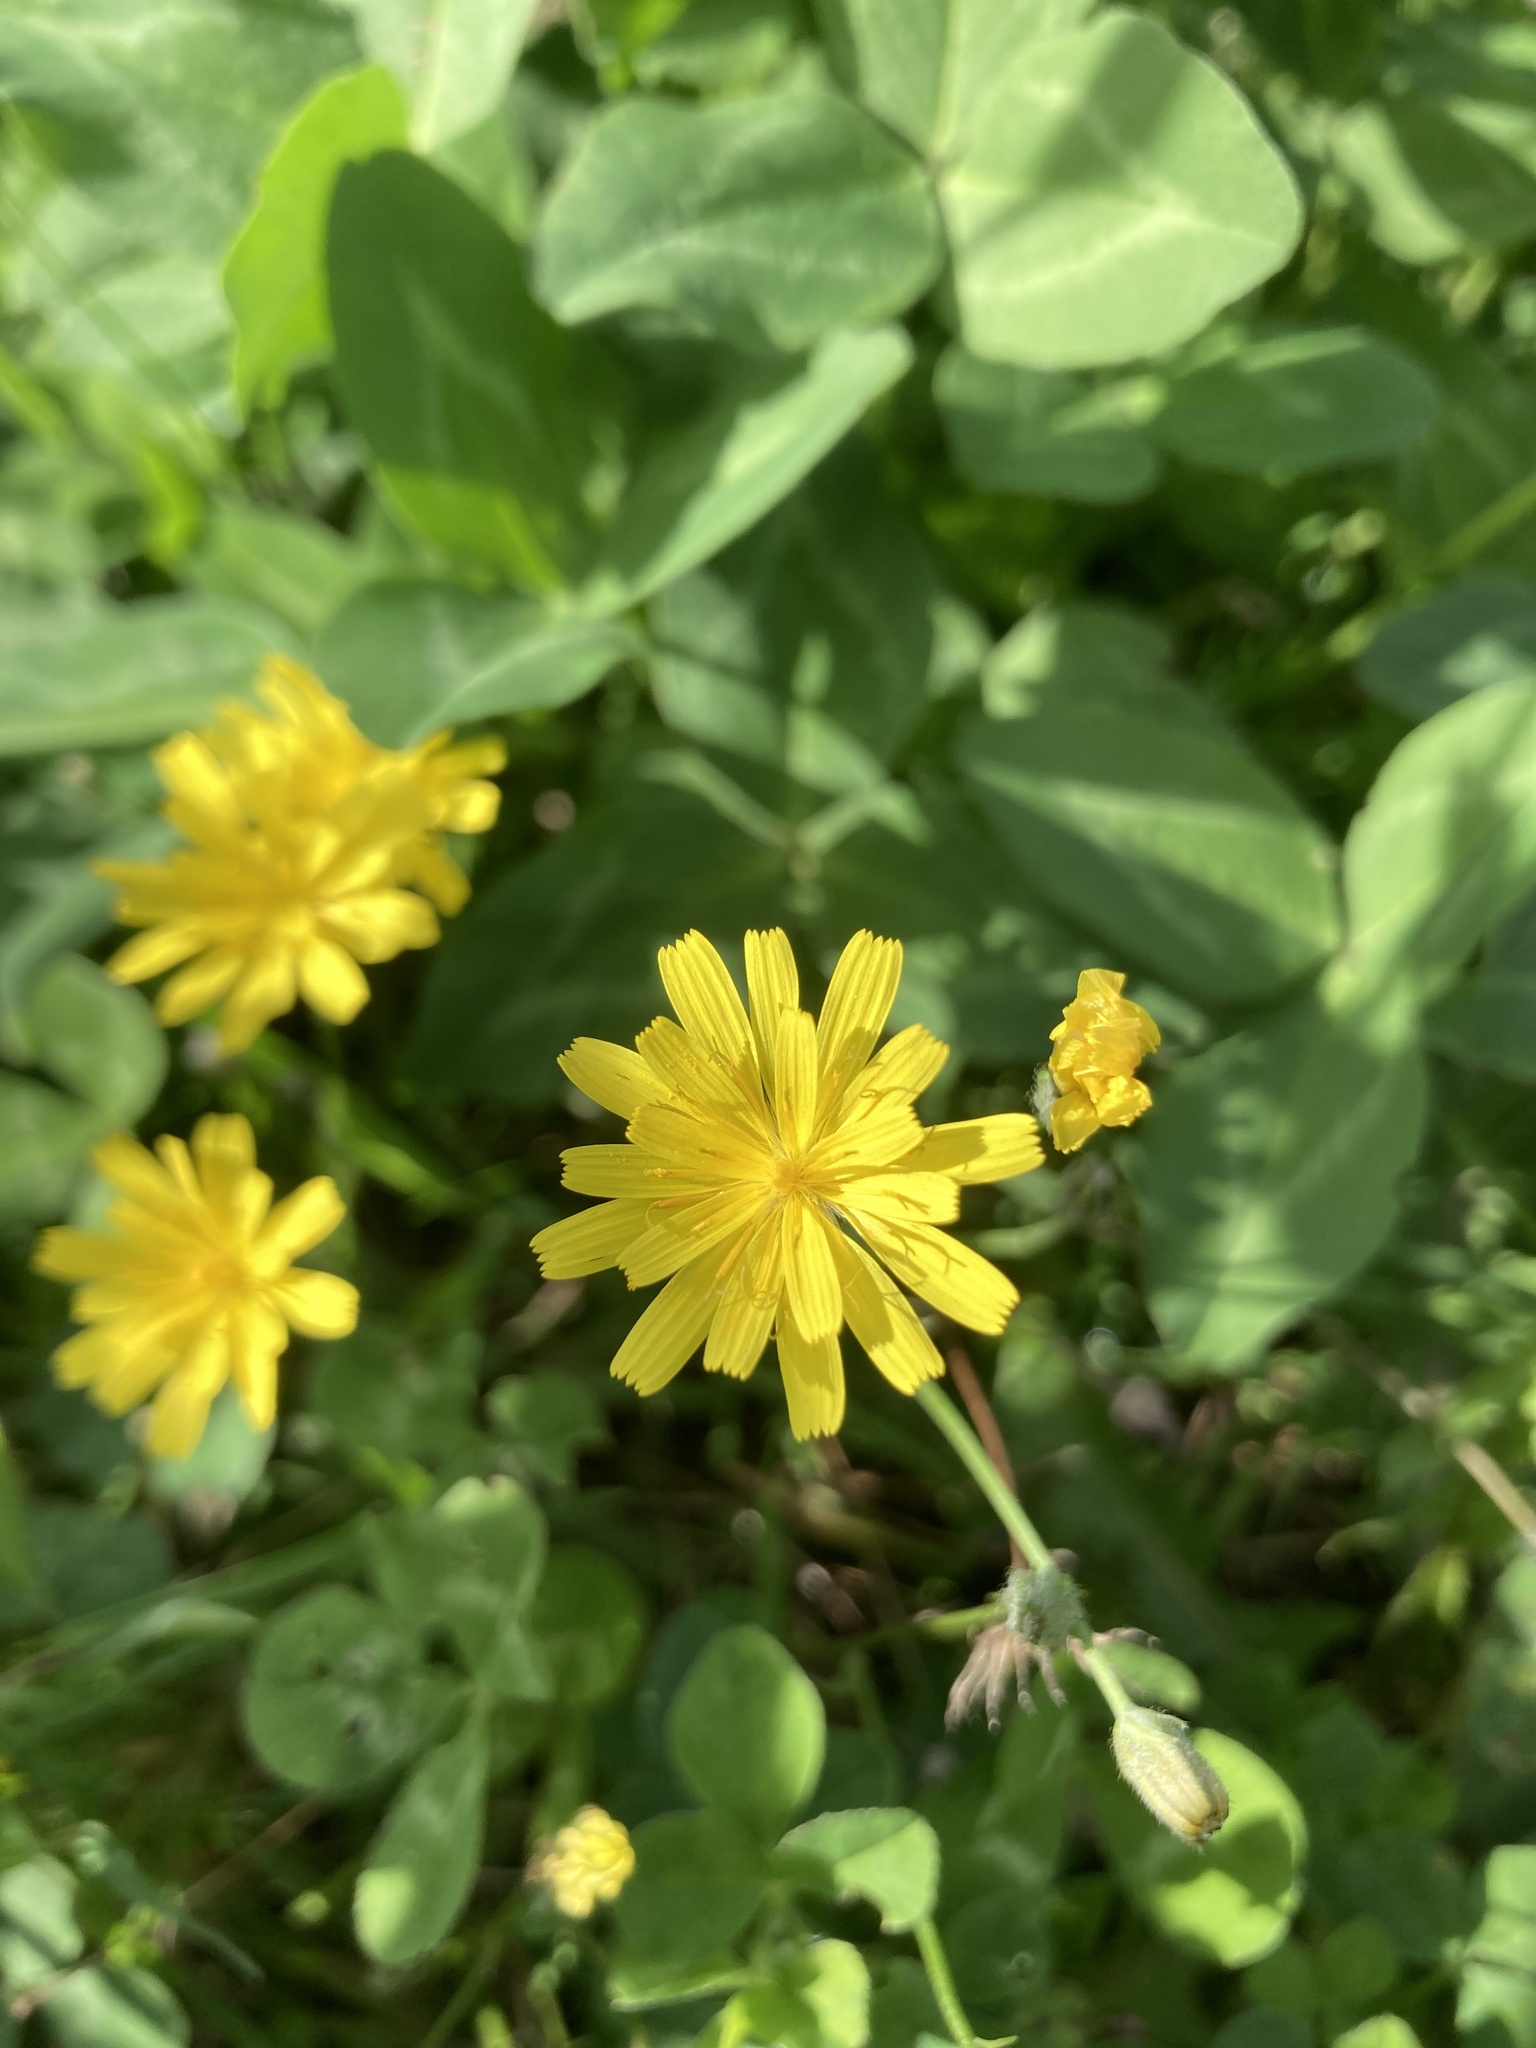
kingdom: Plantae
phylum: Tracheophyta
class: Magnoliopsida
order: Asterales
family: Asteraceae
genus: Lapsana
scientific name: Lapsana communis
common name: Nipplewort
